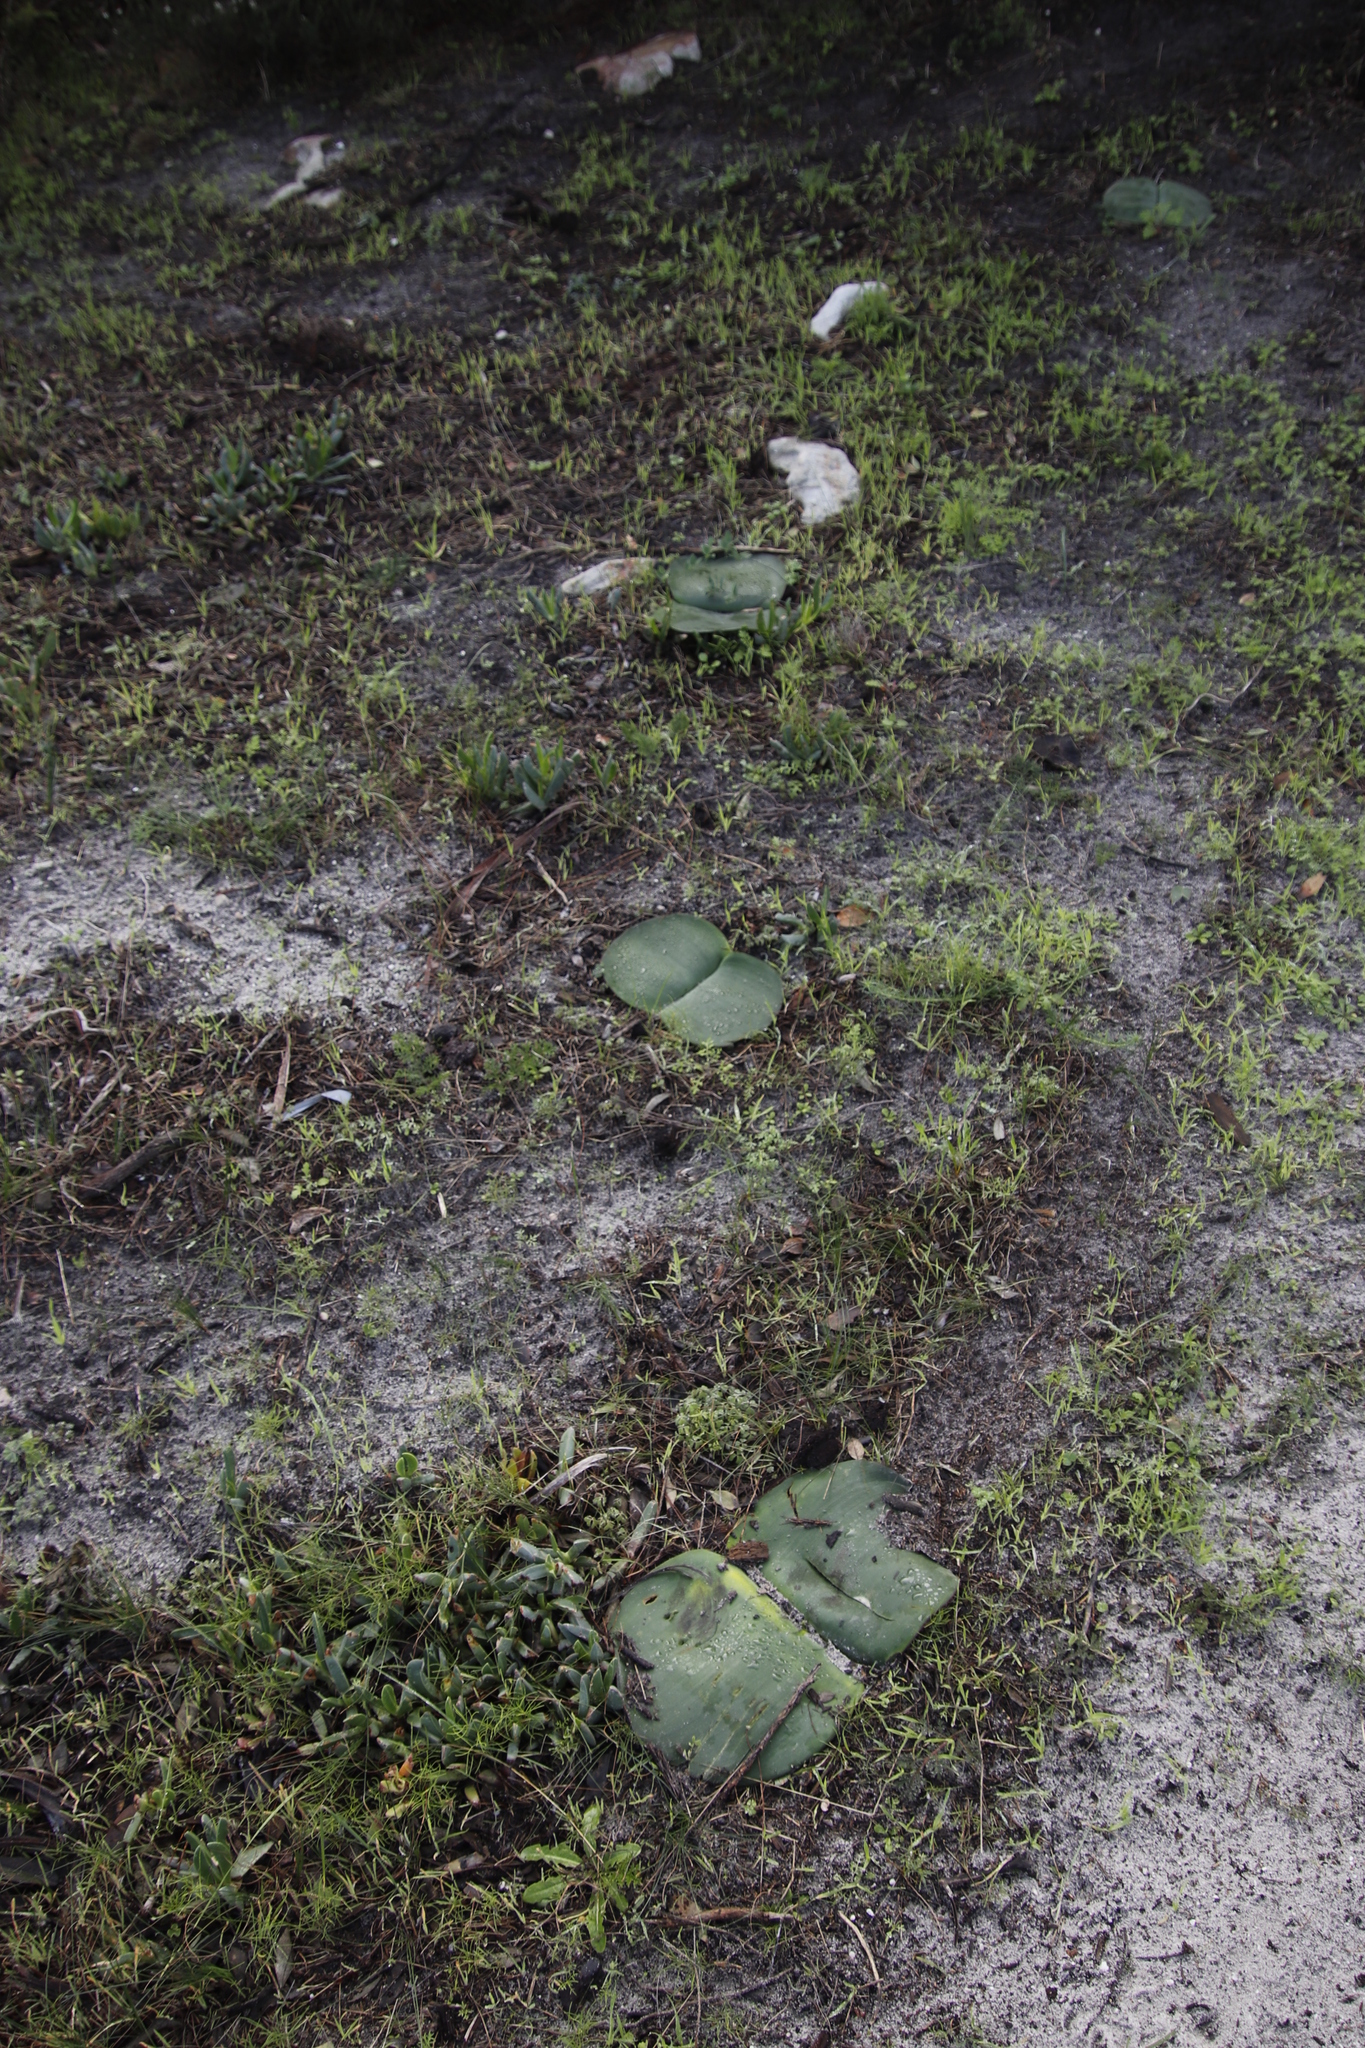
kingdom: Plantae
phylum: Tracheophyta
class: Liliopsida
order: Asparagales
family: Amaryllidaceae
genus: Haemanthus
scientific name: Haemanthus sanguineus
